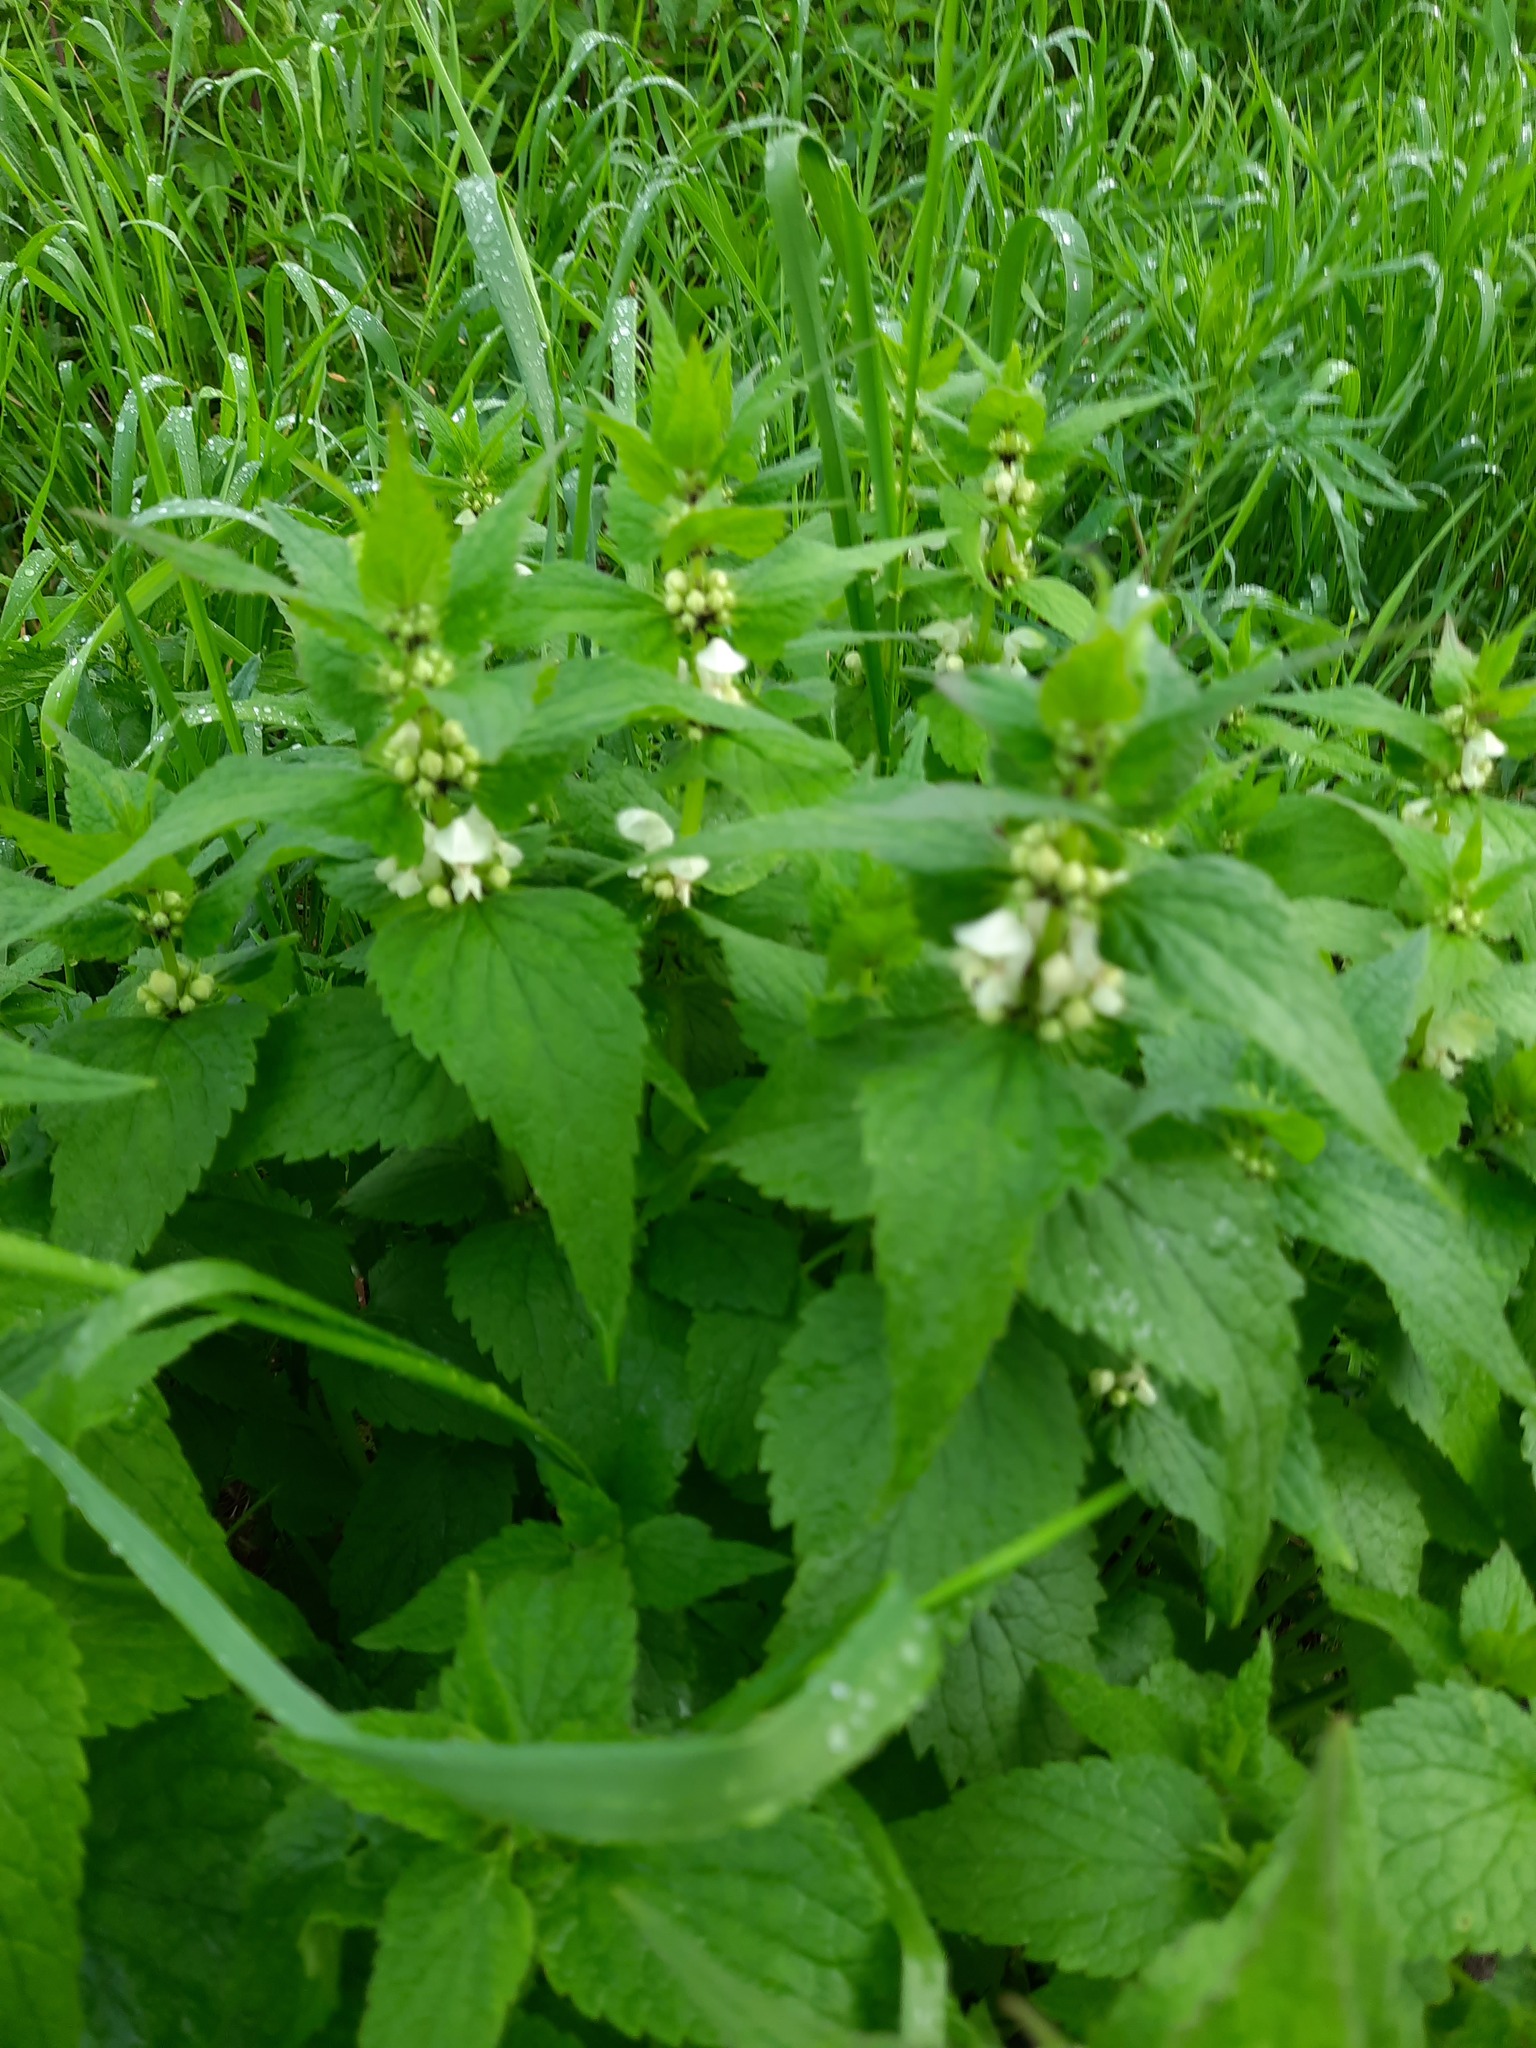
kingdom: Plantae
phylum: Tracheophyta
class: Magnoliopsida
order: Lamiales
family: Lamiaceae
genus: Lamium
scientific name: Lamium album
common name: White dead-nettle
